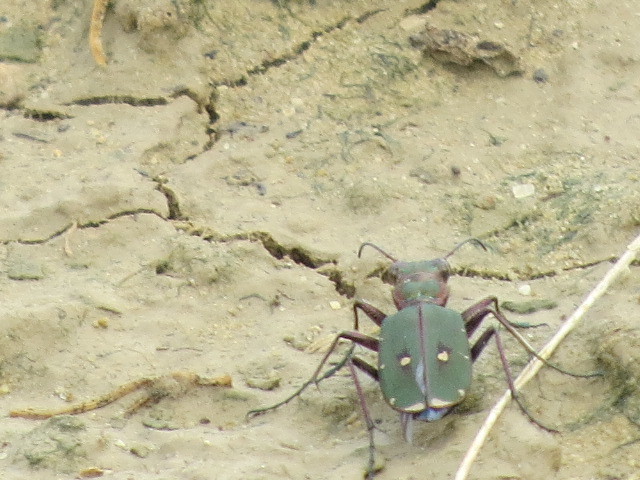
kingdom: Animalia
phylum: Arthropoda
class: Insecta
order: Coleoptera
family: Carabidae
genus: Cicindela
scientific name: Cicindela campestris
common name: Common tiger beetle
